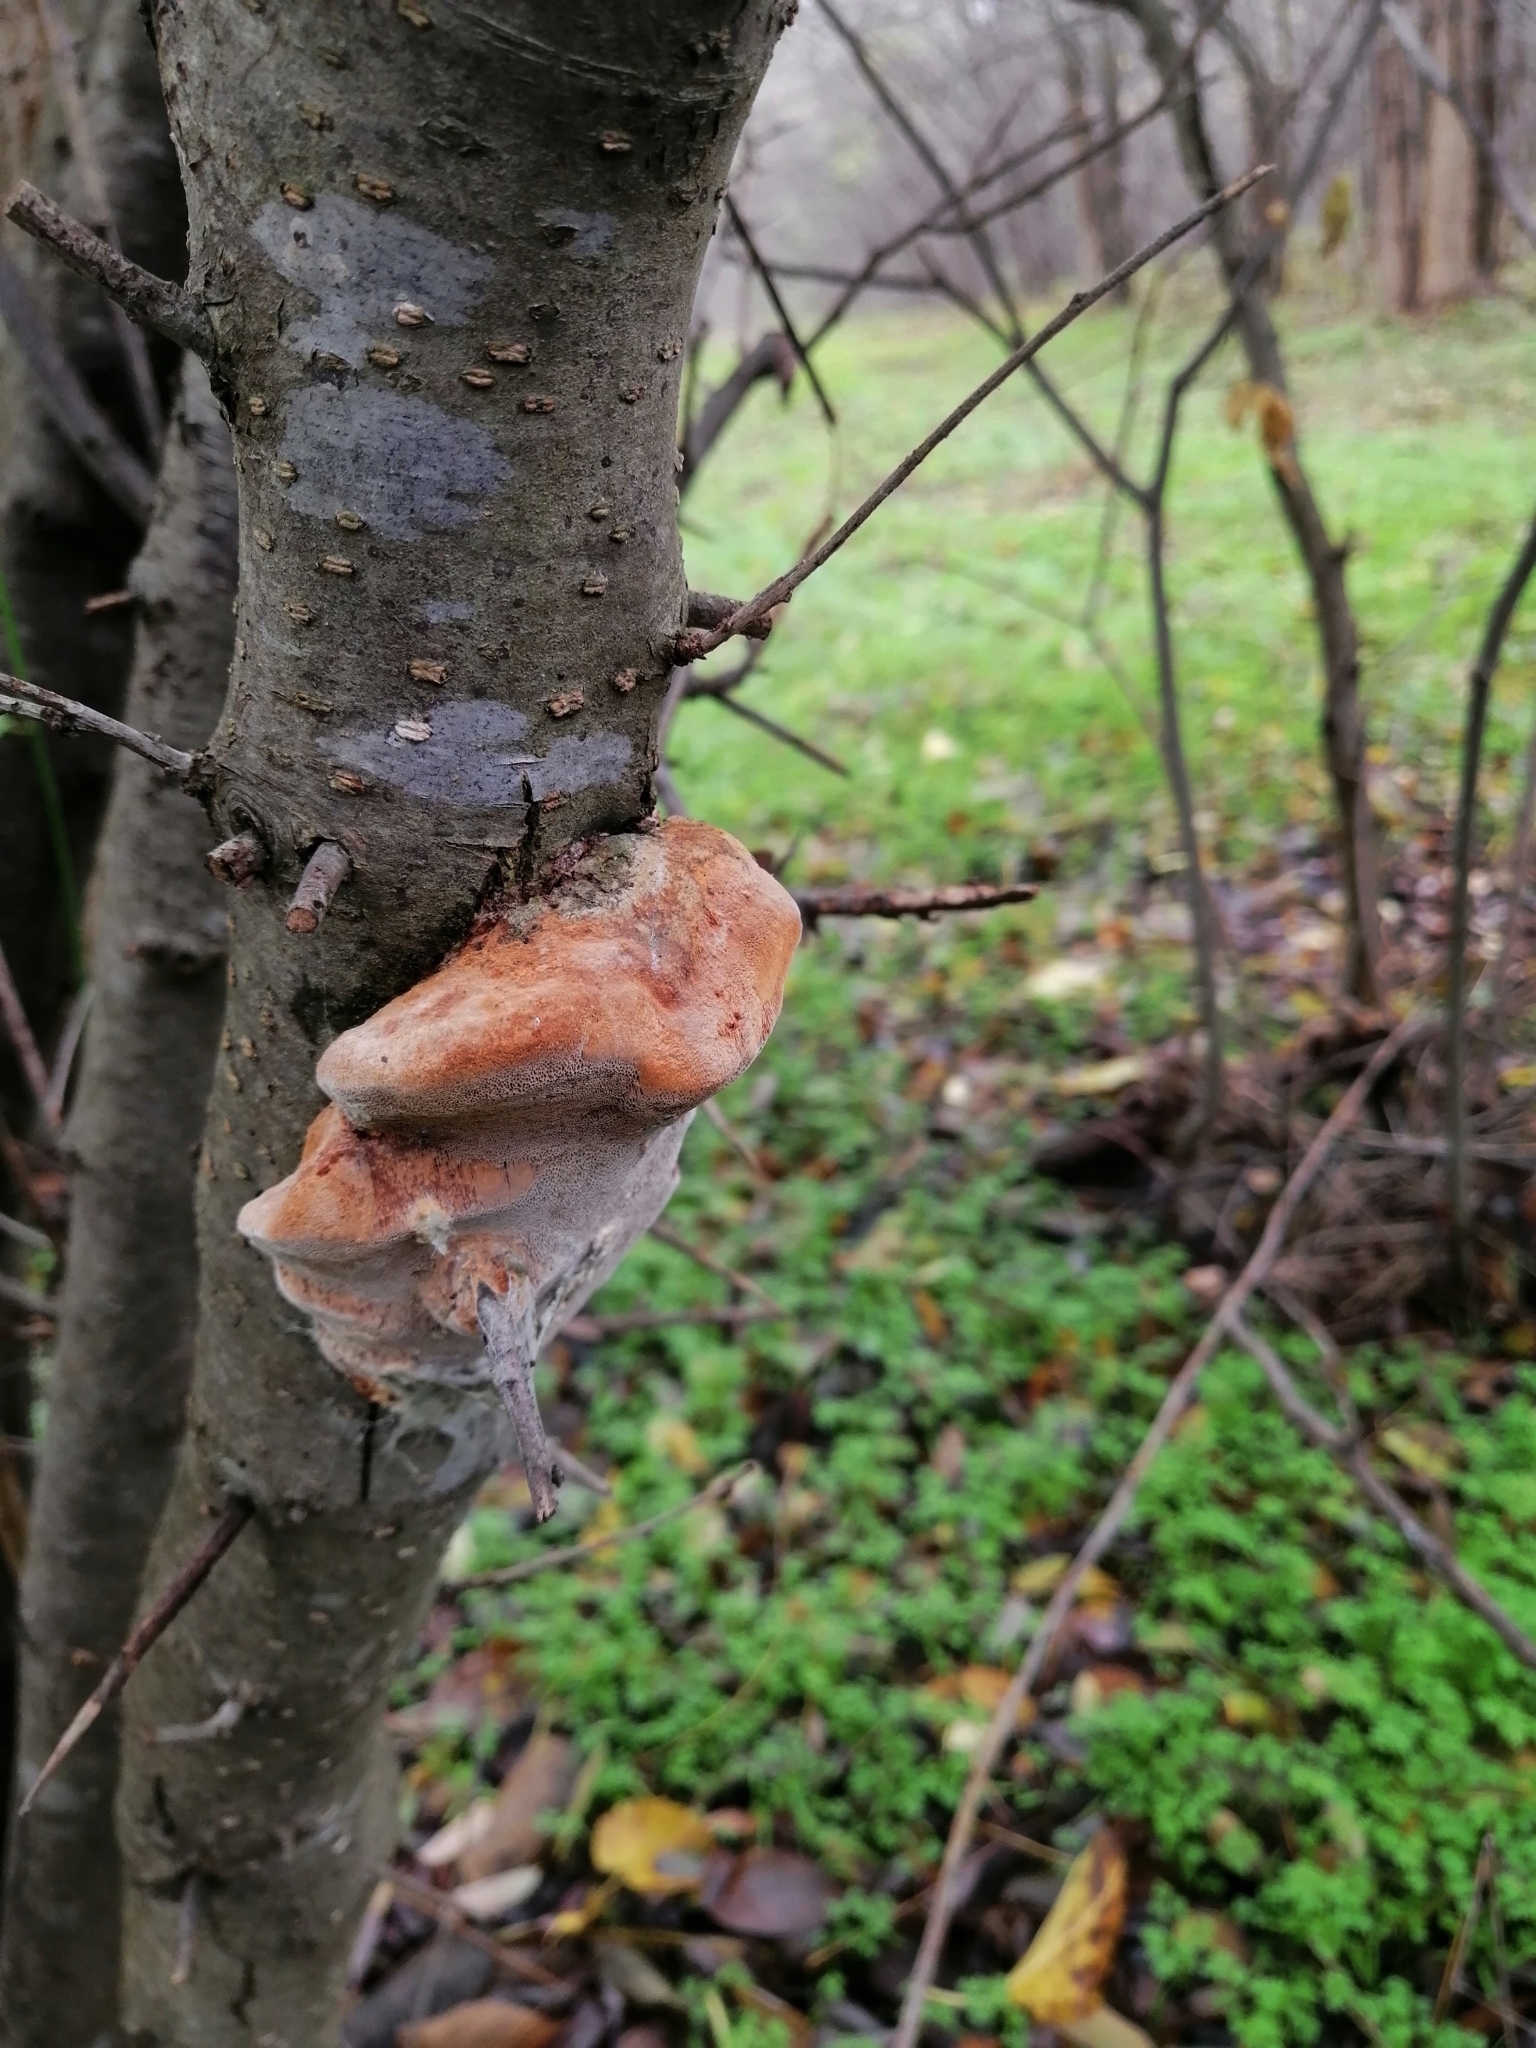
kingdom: Fungi
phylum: Basidiomycota
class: Agaricomycetes
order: Hymenochaetales
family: Hymenochaetaceae
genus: Phellinus
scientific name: Phellinus pomaceus
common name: Cushion bracket
